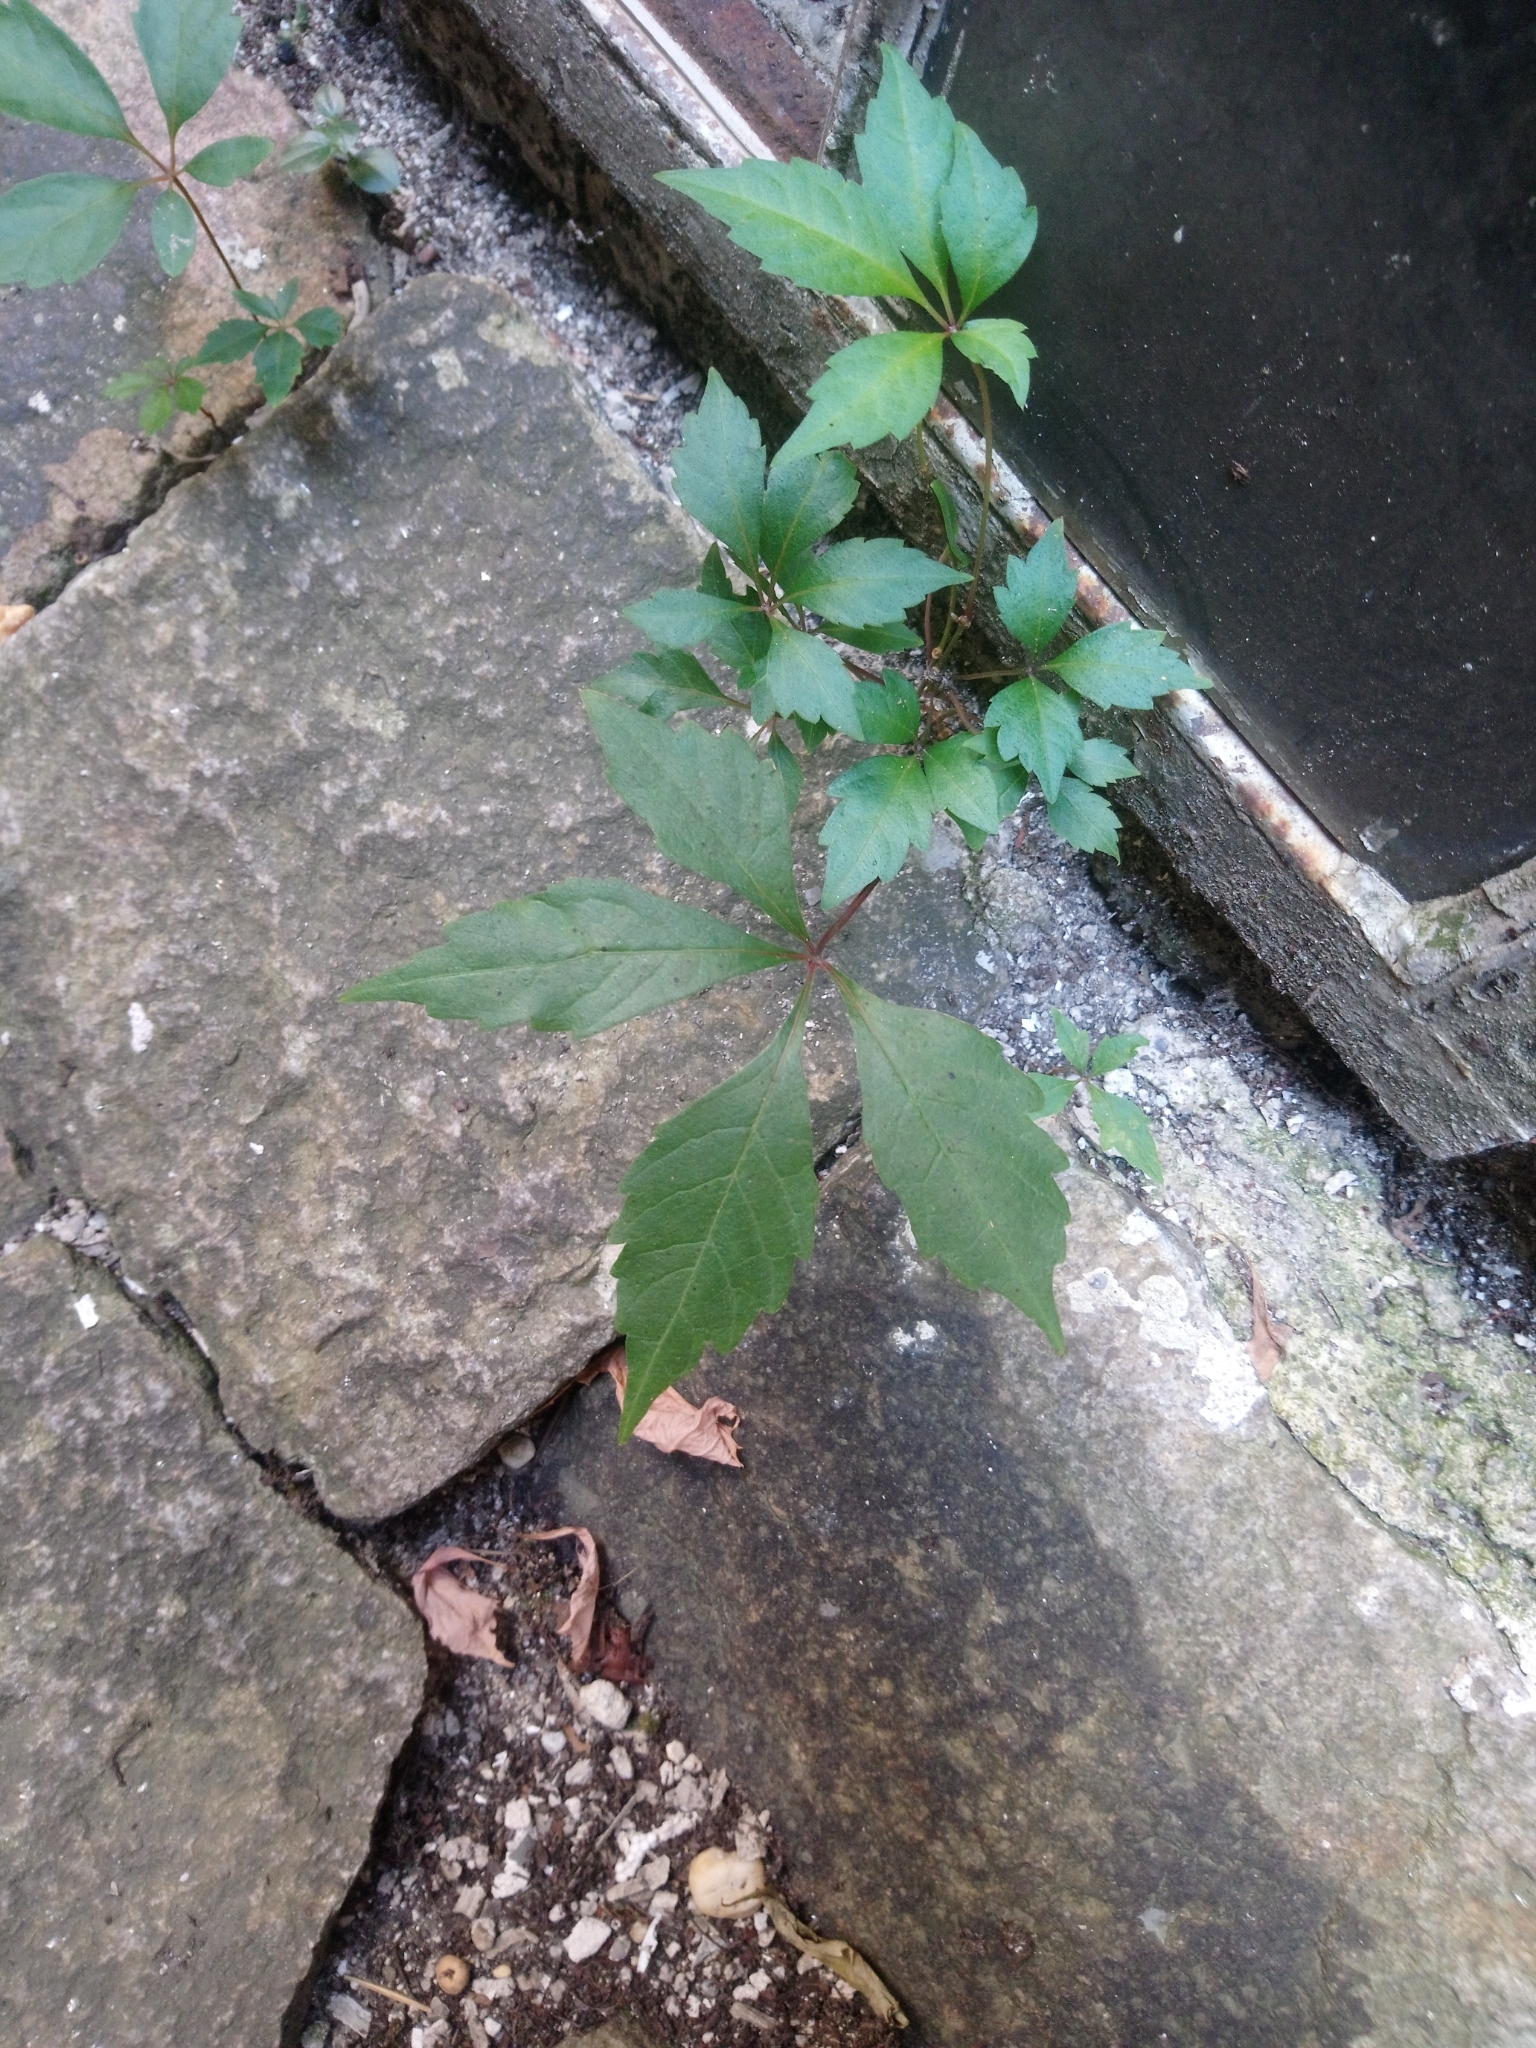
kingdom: Plantae
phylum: Tracheophyta
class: Magnoliopsida
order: Vitales
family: Vitaceae
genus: Parthenocissus
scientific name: Parthenocissus quinquefolia
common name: Virginia-creeper
